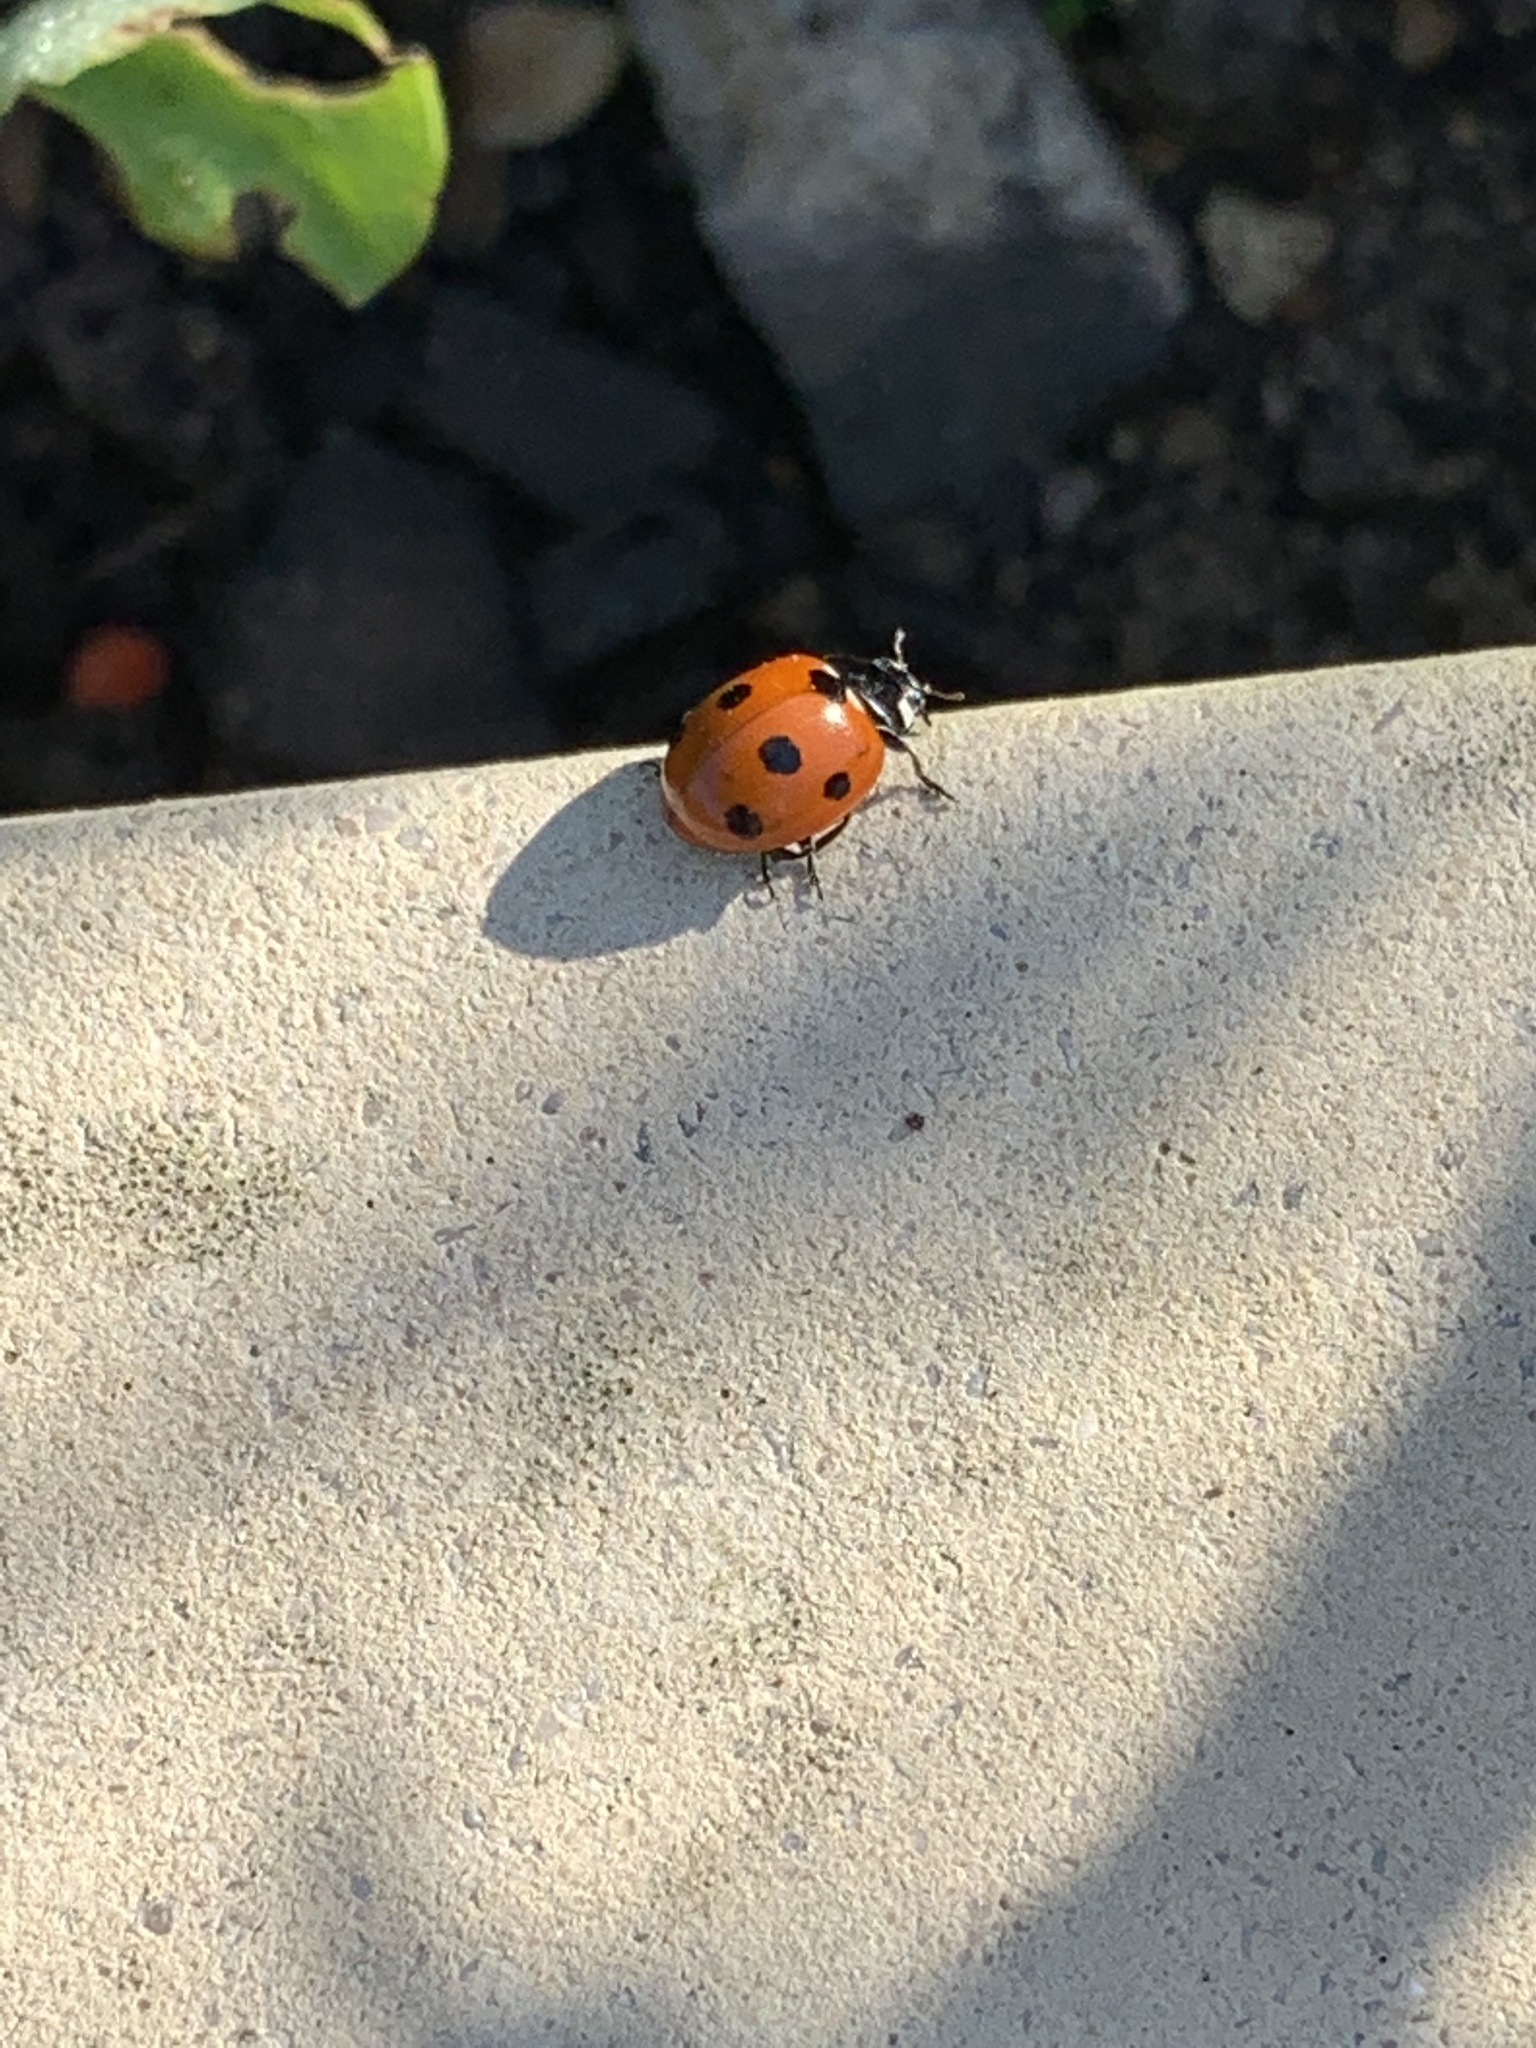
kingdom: Animalia
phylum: Arthropoda
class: Insecta
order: Coleoptera
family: Coccinellidae
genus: Coccinella
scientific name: Coccinella septempunctata
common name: Sevenspotted lady beetle
